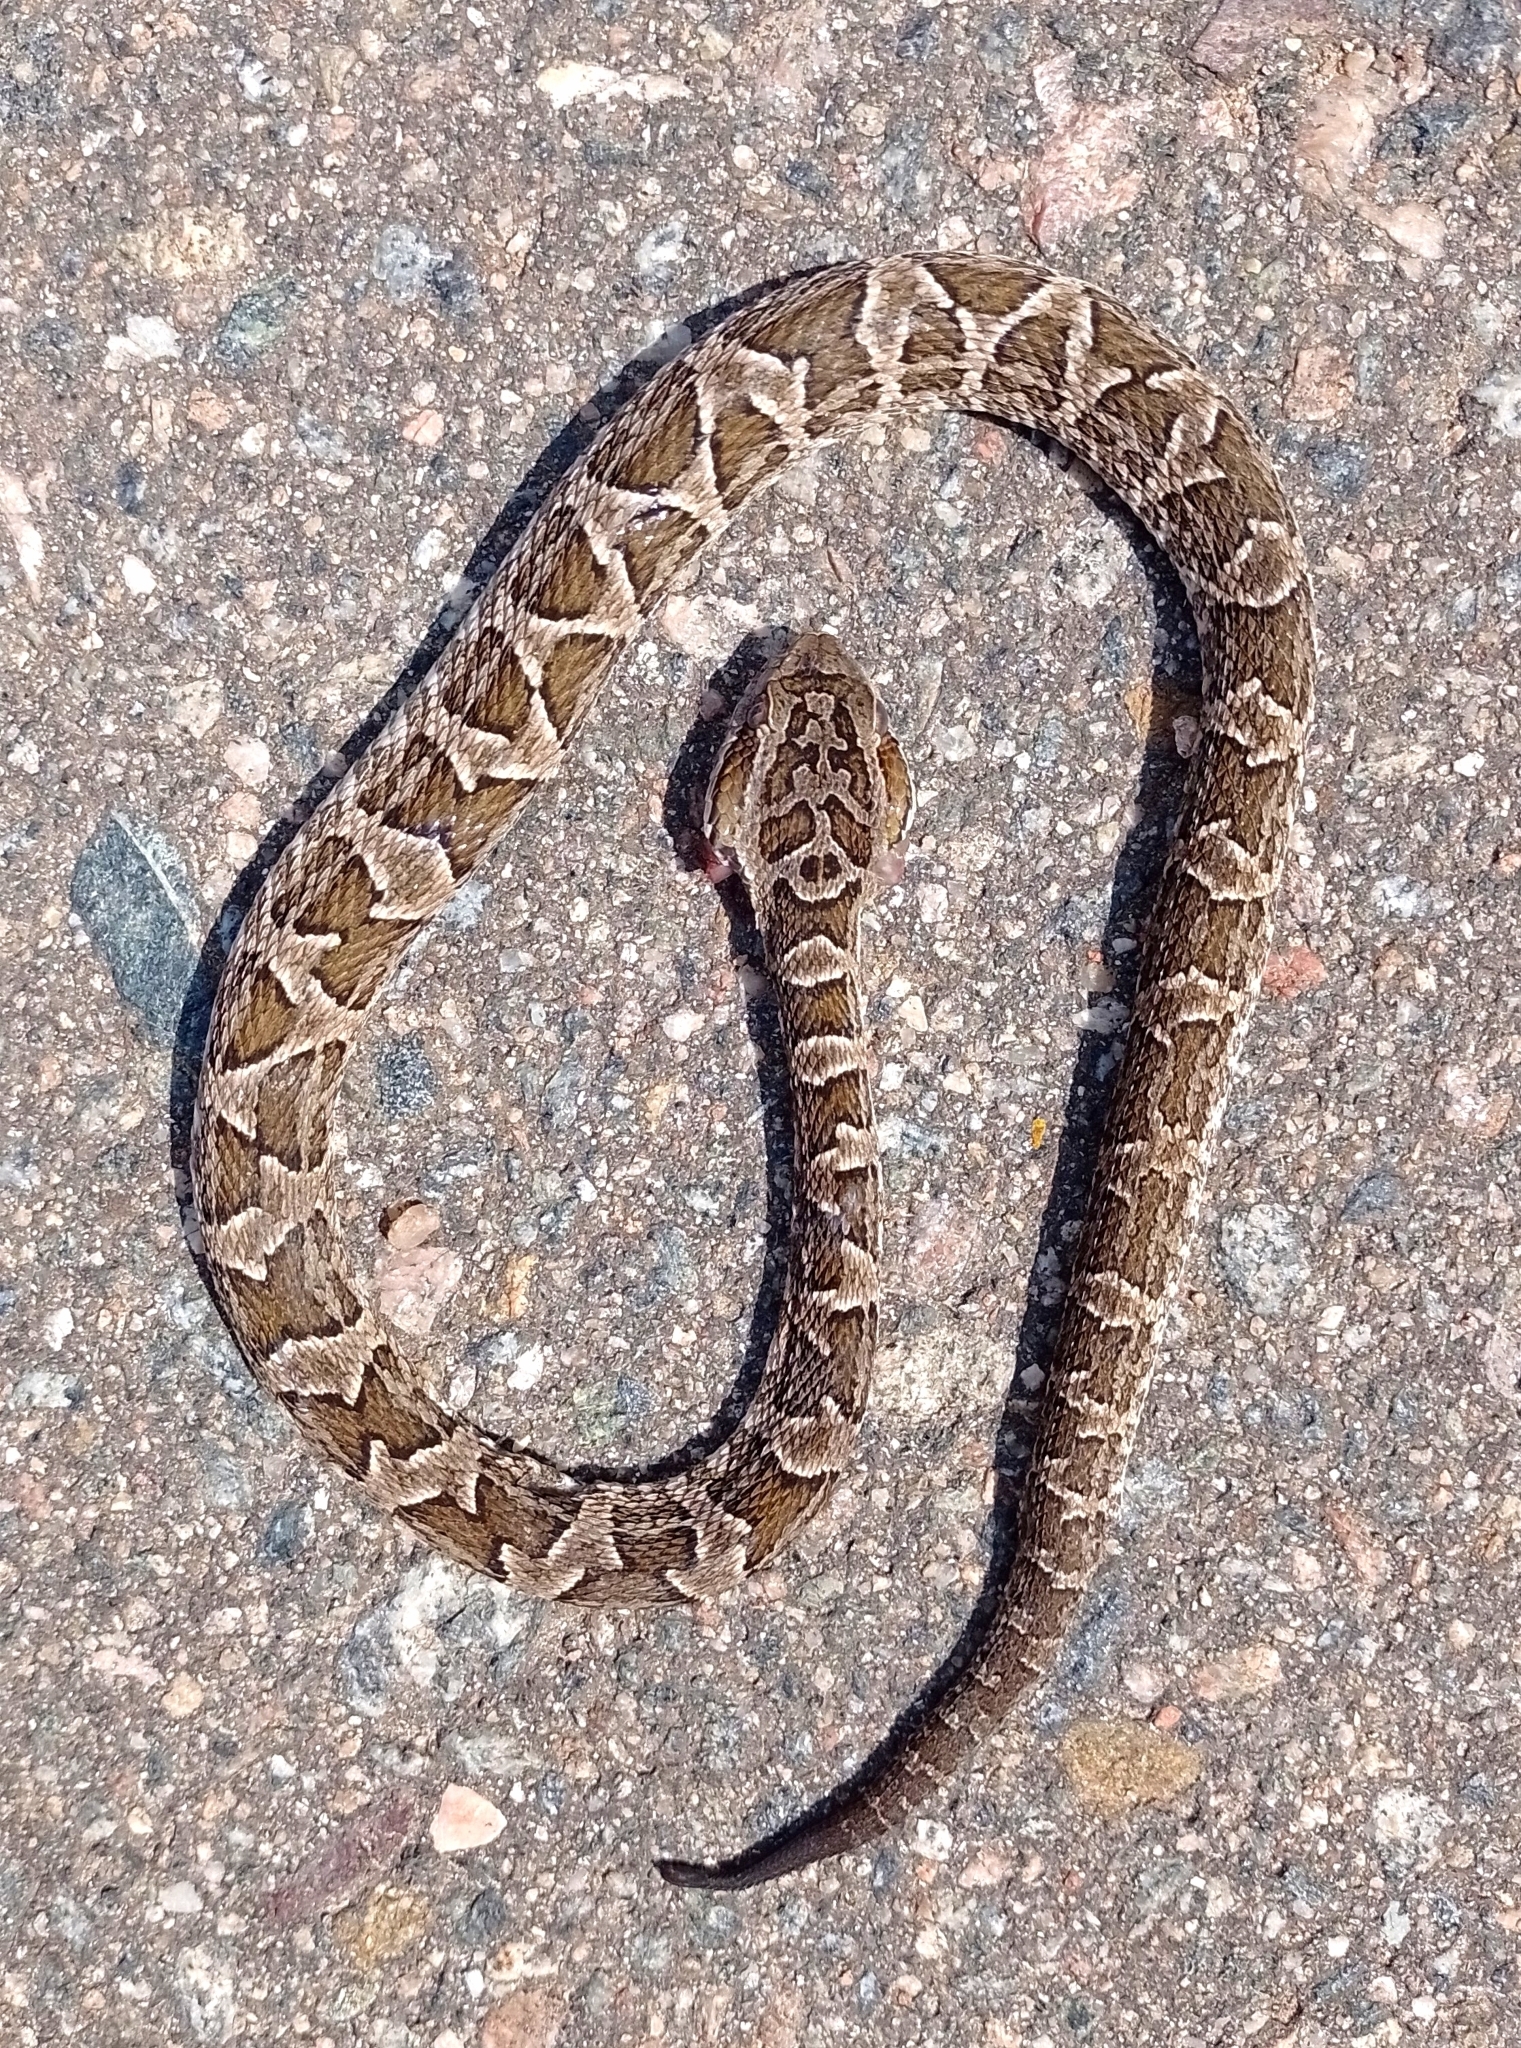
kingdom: Animalia
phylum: Chordata
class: Squamata
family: Viperidae
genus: Bothrops
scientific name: Bothrops diporus
